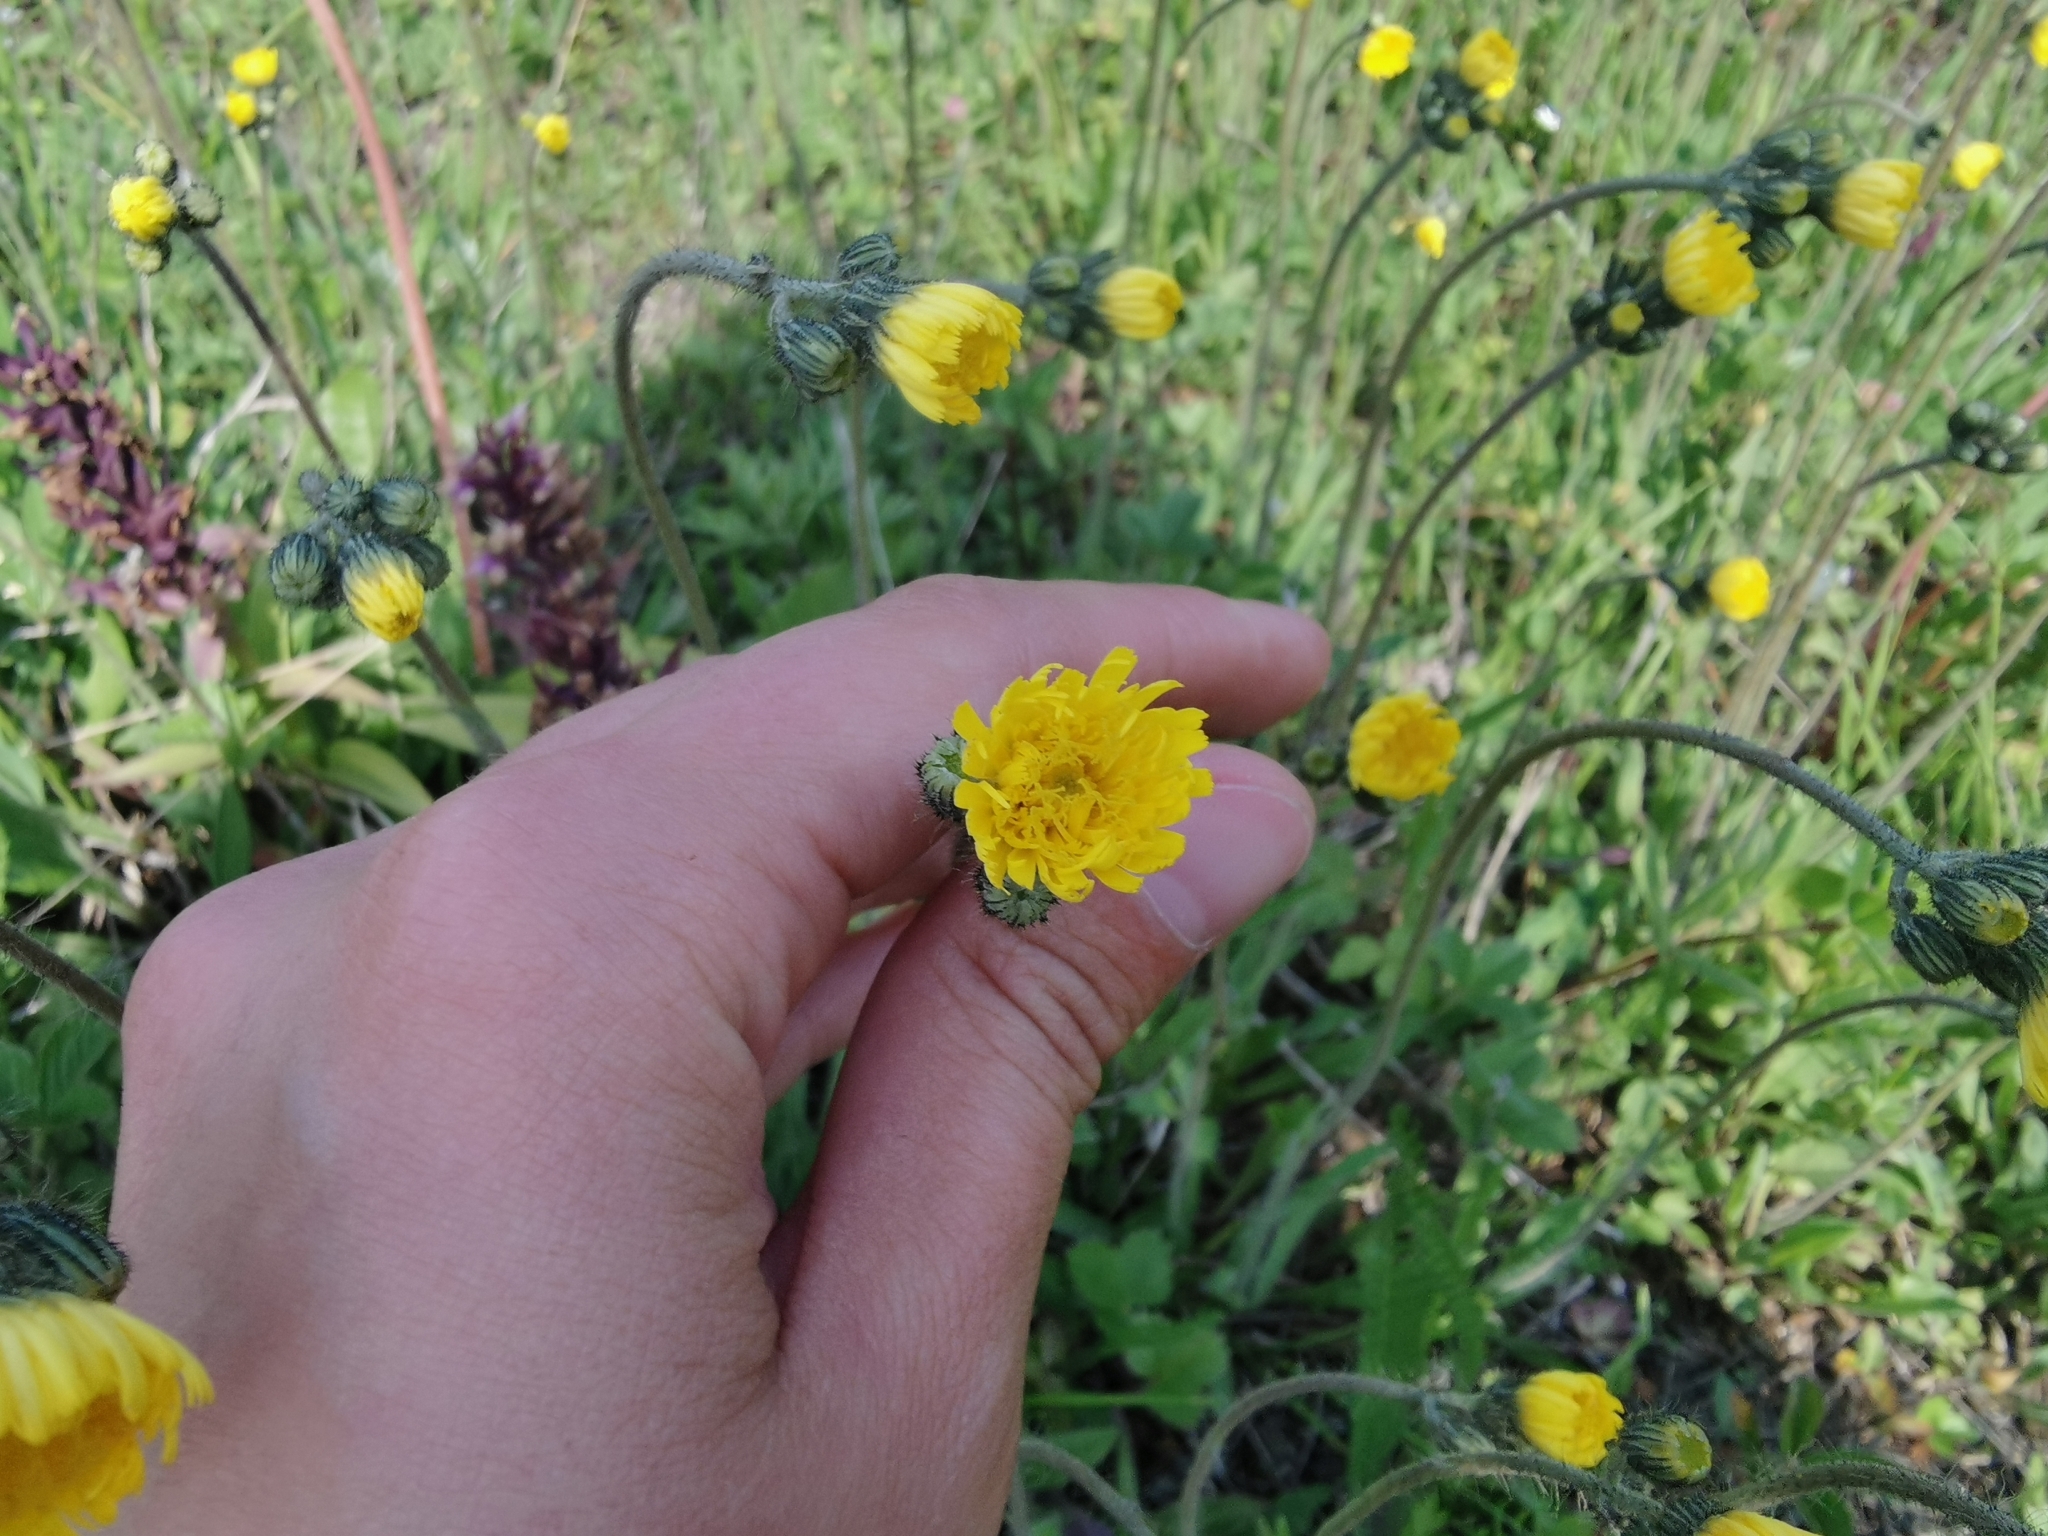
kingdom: Plantae
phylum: Tracheophyta
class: Magnoliopsida
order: Asterales
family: Asteraceae
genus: Pilosella
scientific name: Pilosella floribunda
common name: Glaucous hawkweed
